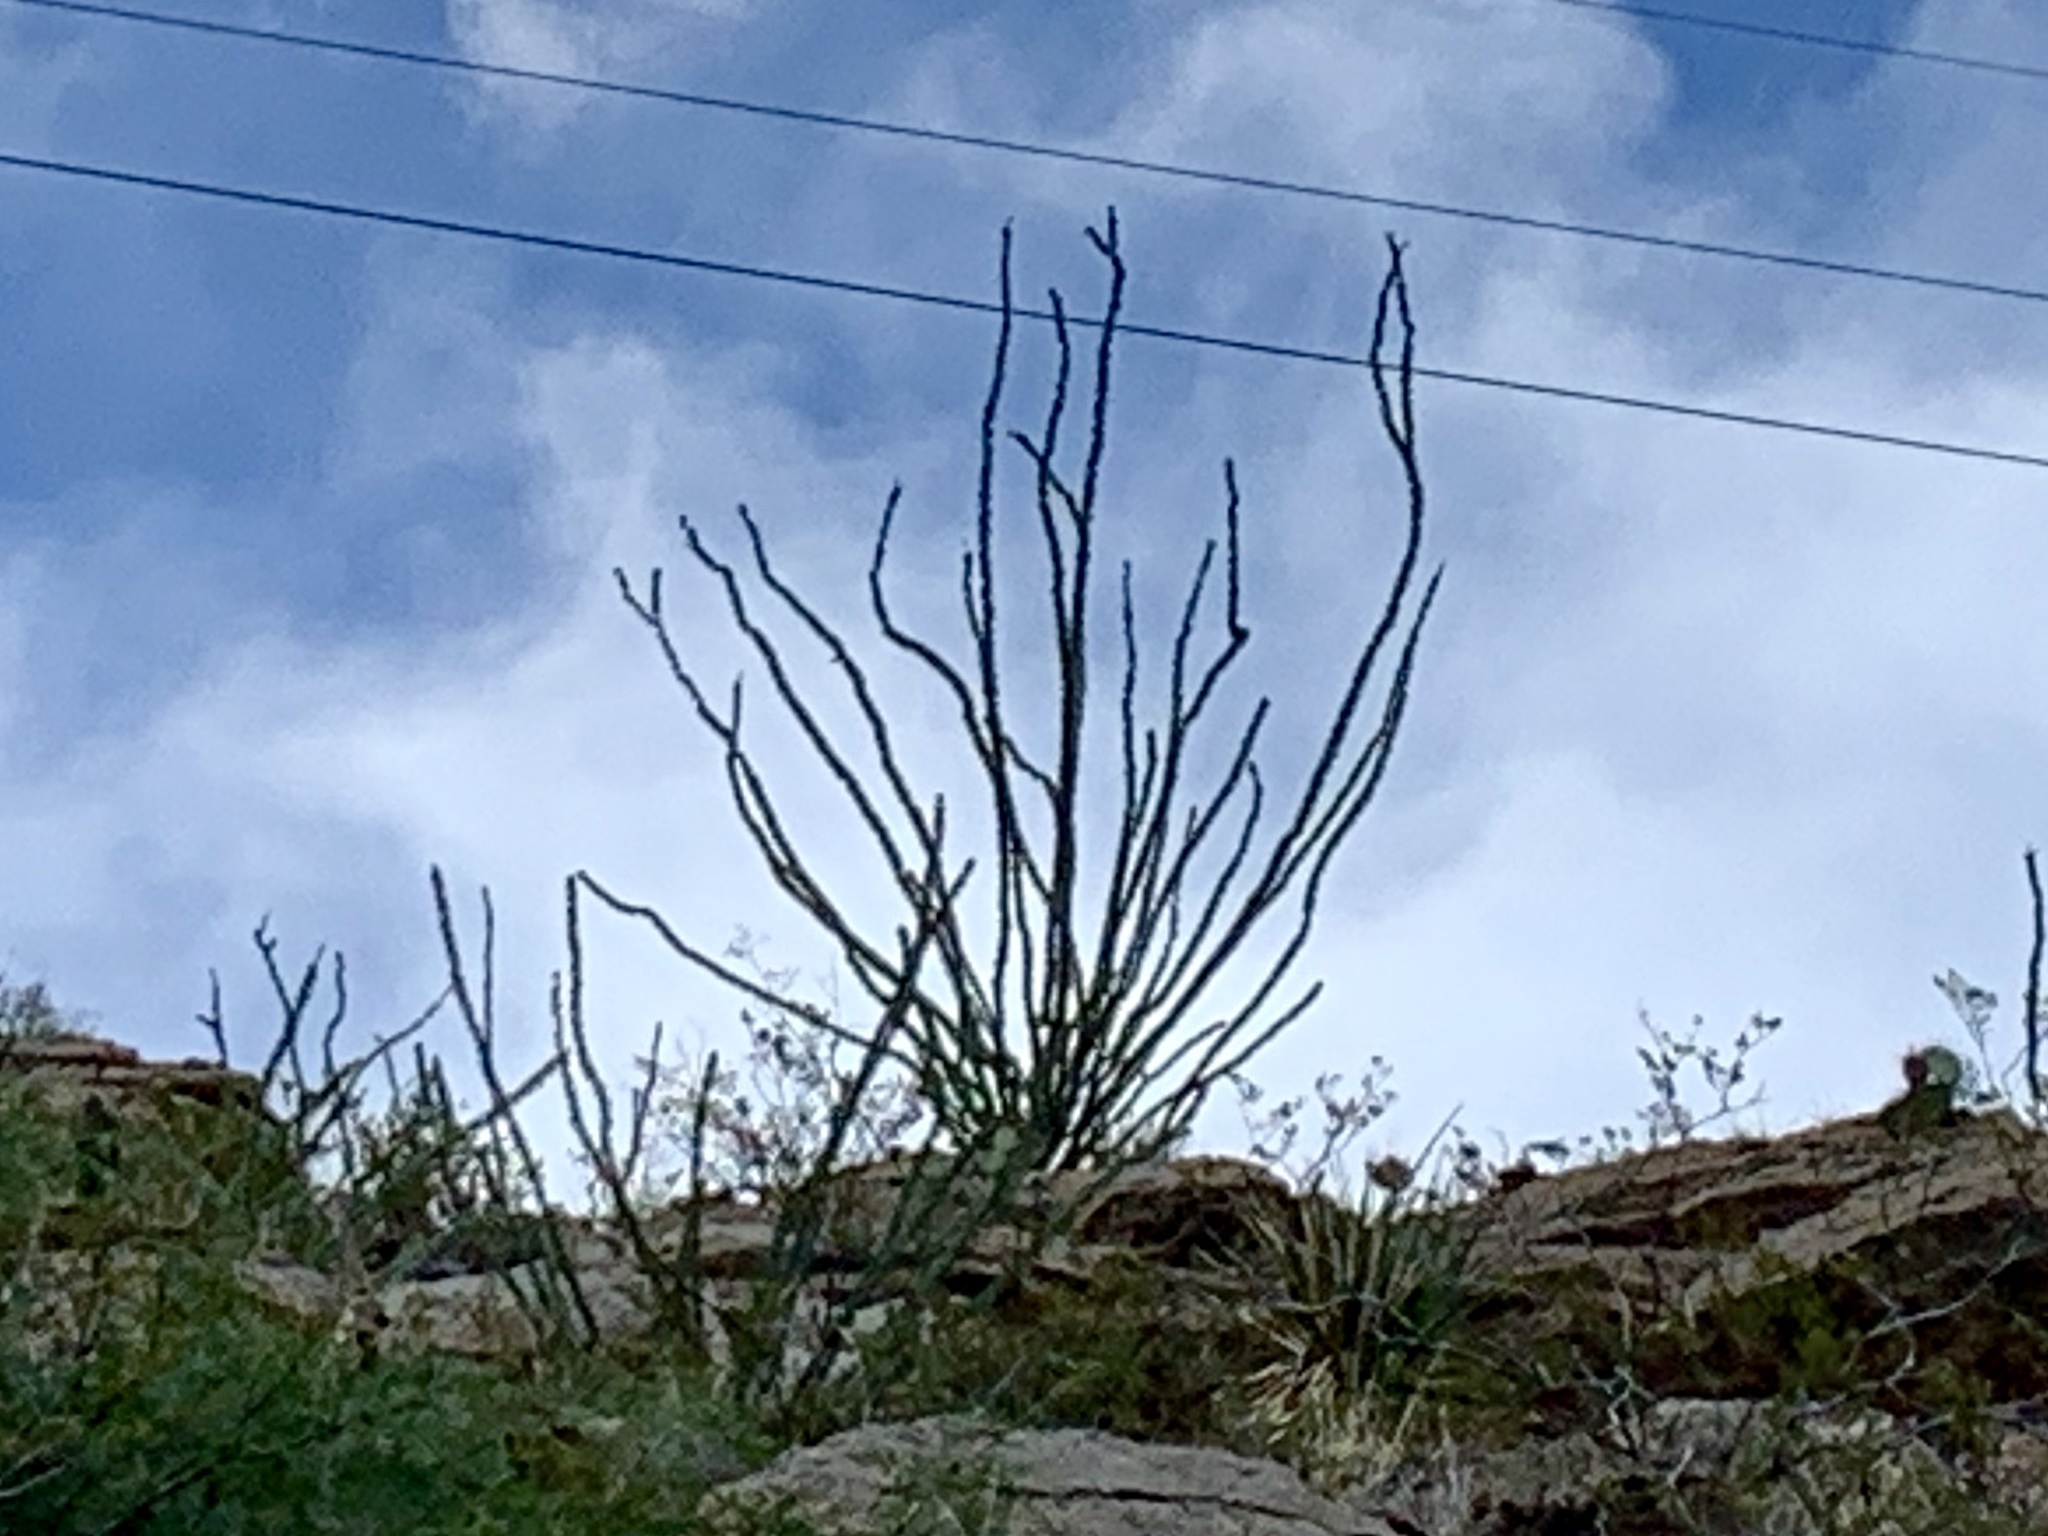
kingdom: Plantae
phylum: Tracheophyta
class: Magnoliopsida
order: Ericales
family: Fouquieriaceae
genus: Fouquieria
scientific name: Fouquieria splendens
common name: Vine-cactus
